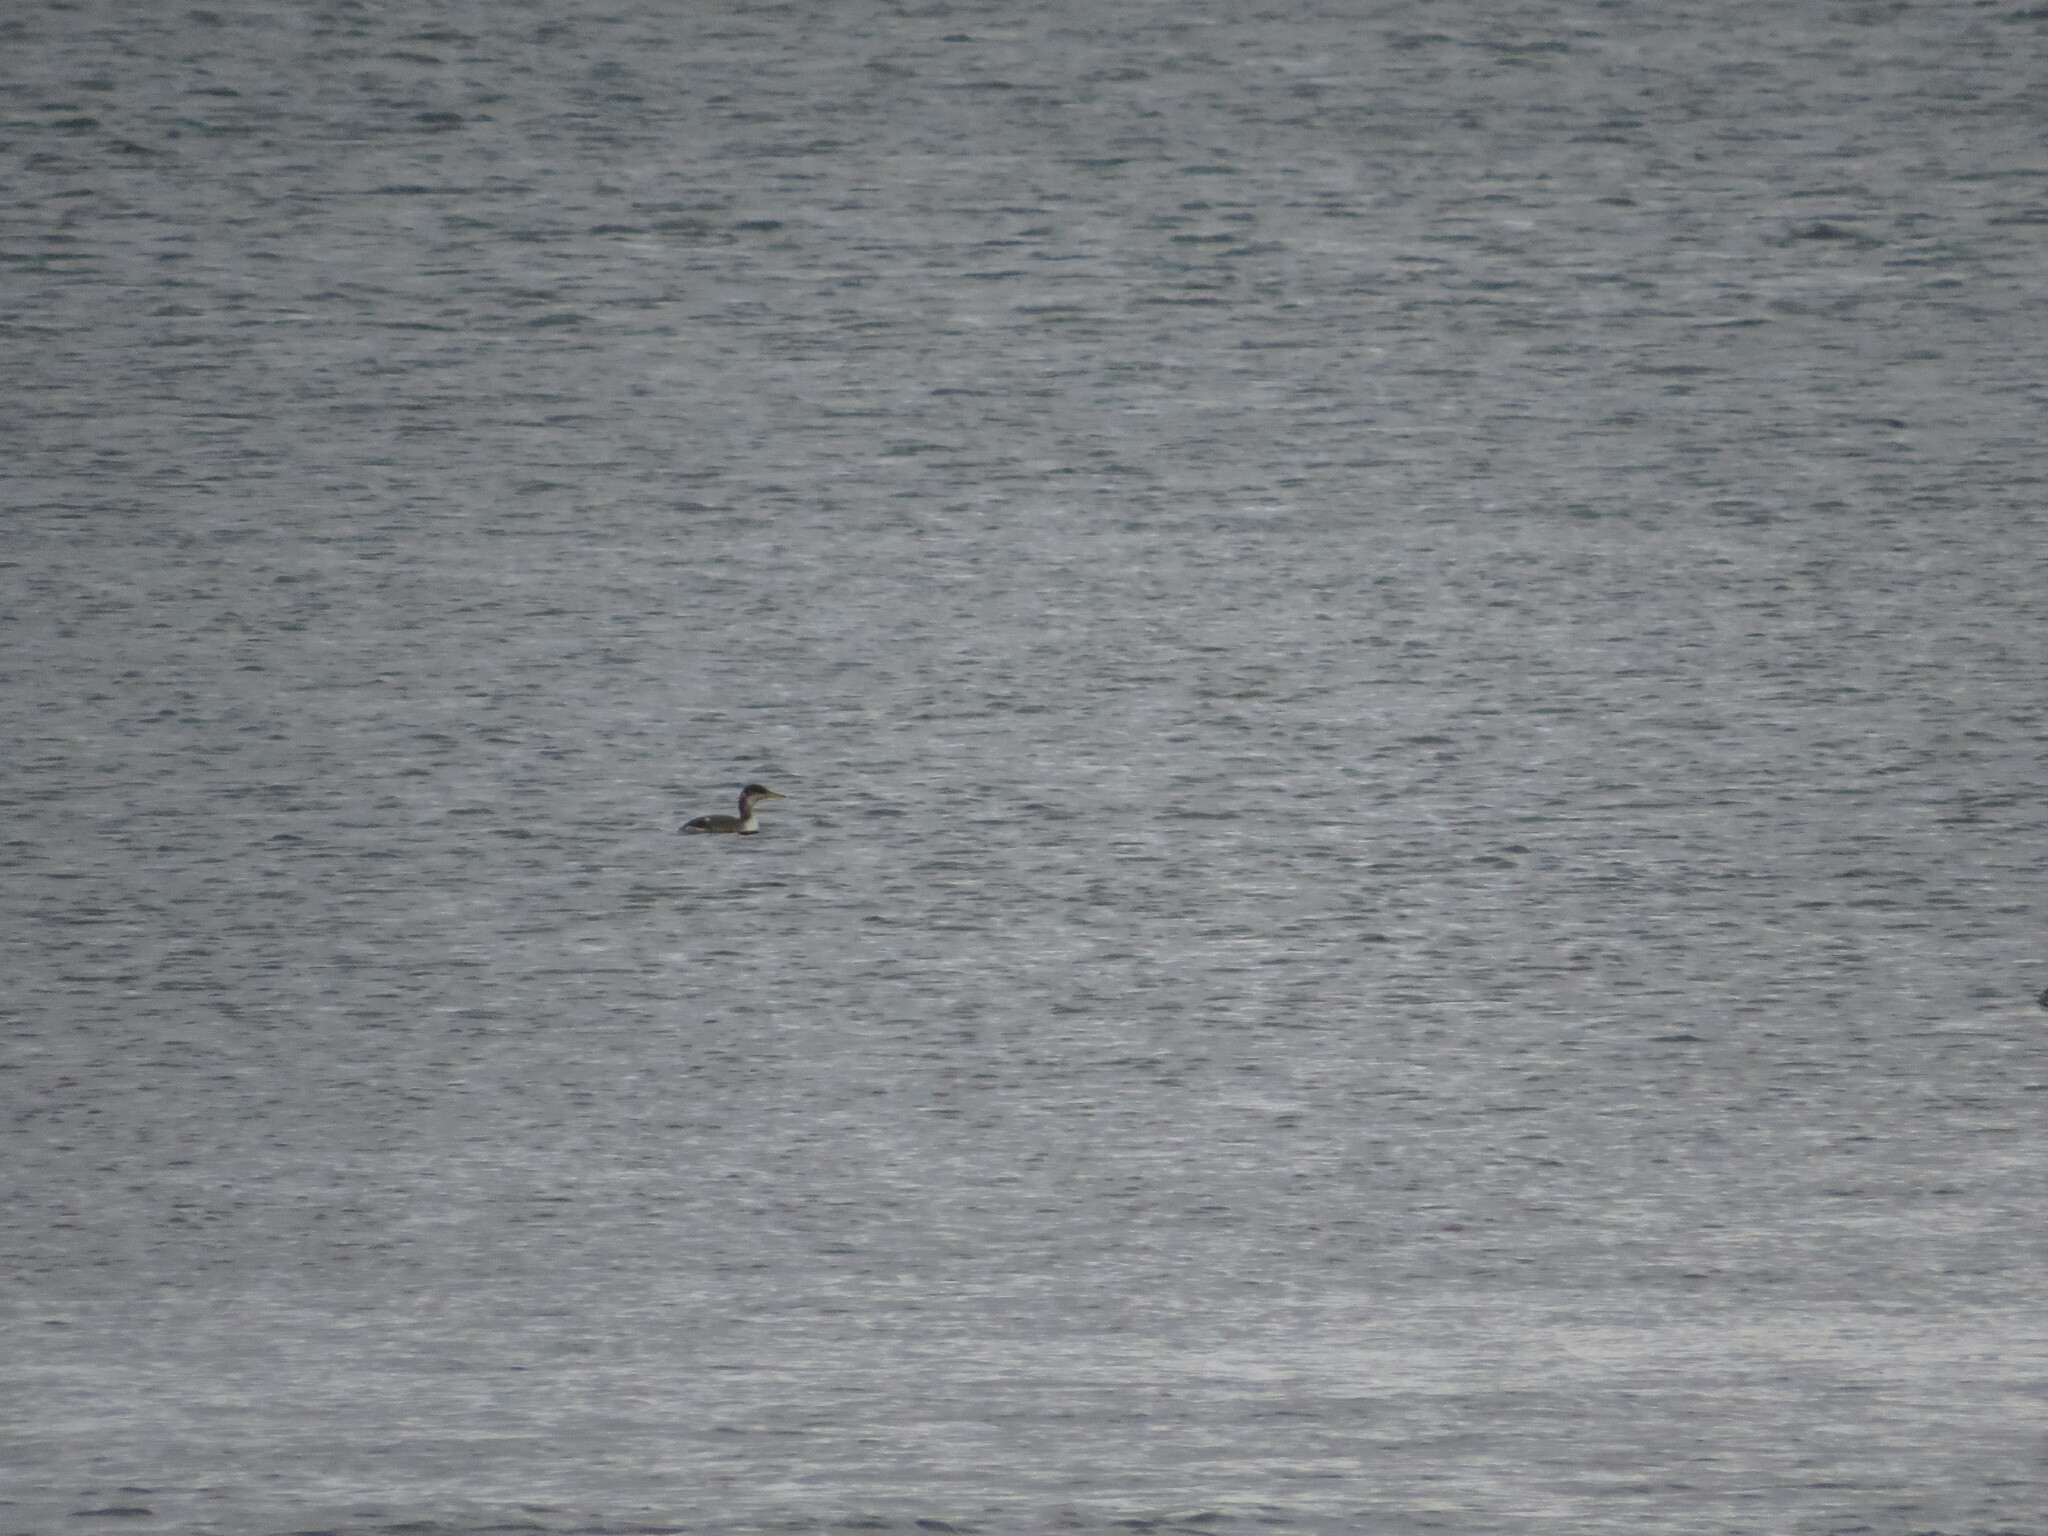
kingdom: Animalia
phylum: Chordata
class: Aves
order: Podicipediformes
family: Podicipedidae
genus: Podiceps
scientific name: Podiceps grisegena
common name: Red-necked grebe
